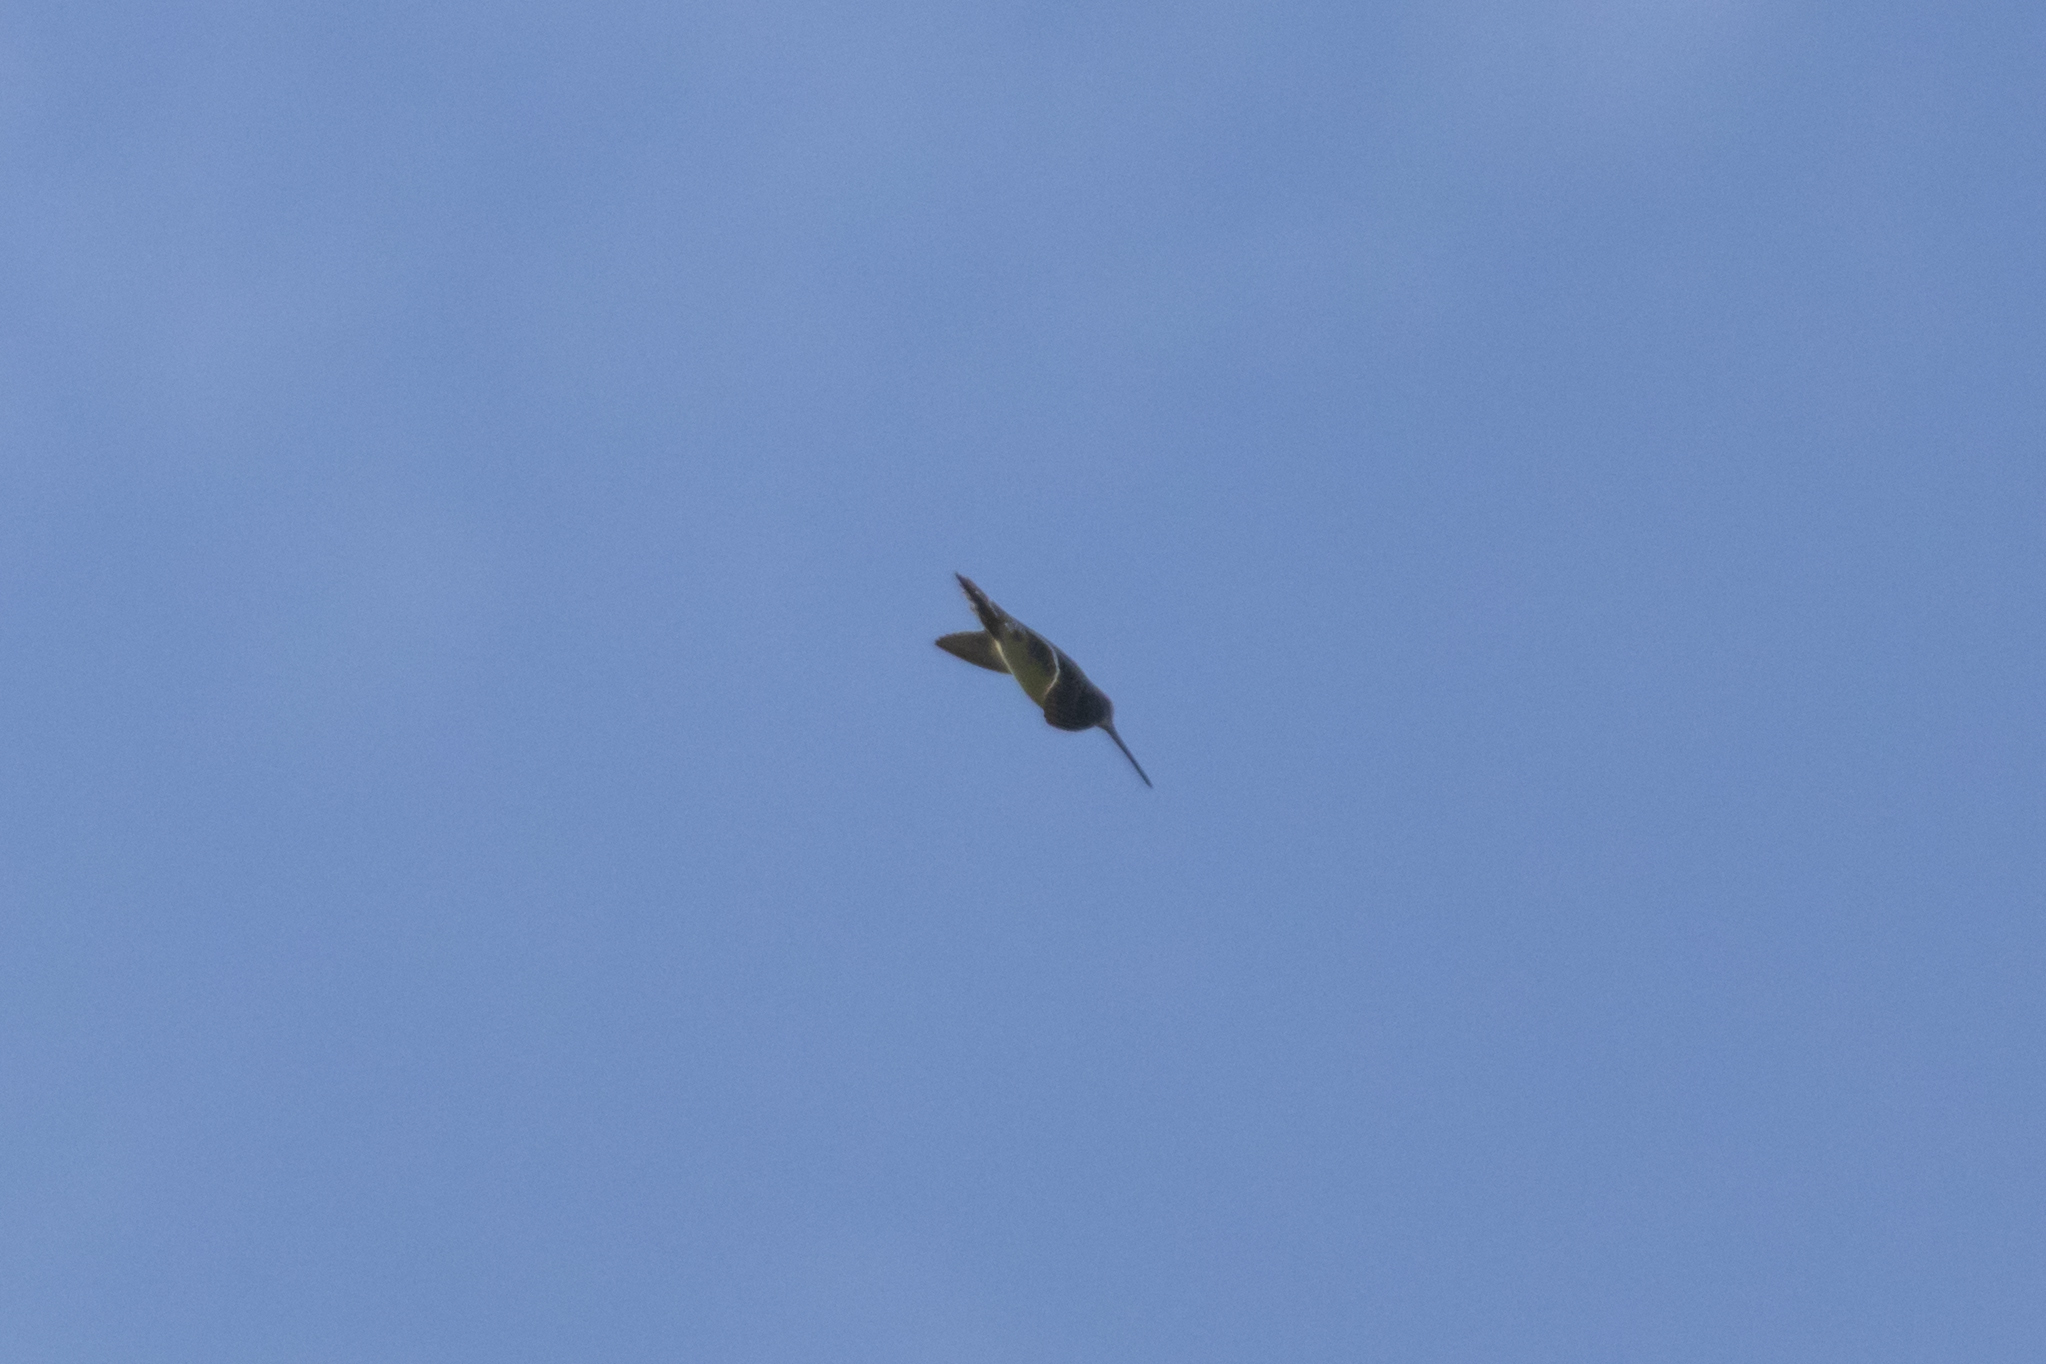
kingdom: Animalia
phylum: Chordata
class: Aves
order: Charadriiformes
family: Scolopacidae
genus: Gallinago
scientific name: Gallinago gallinago
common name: Common snipe
